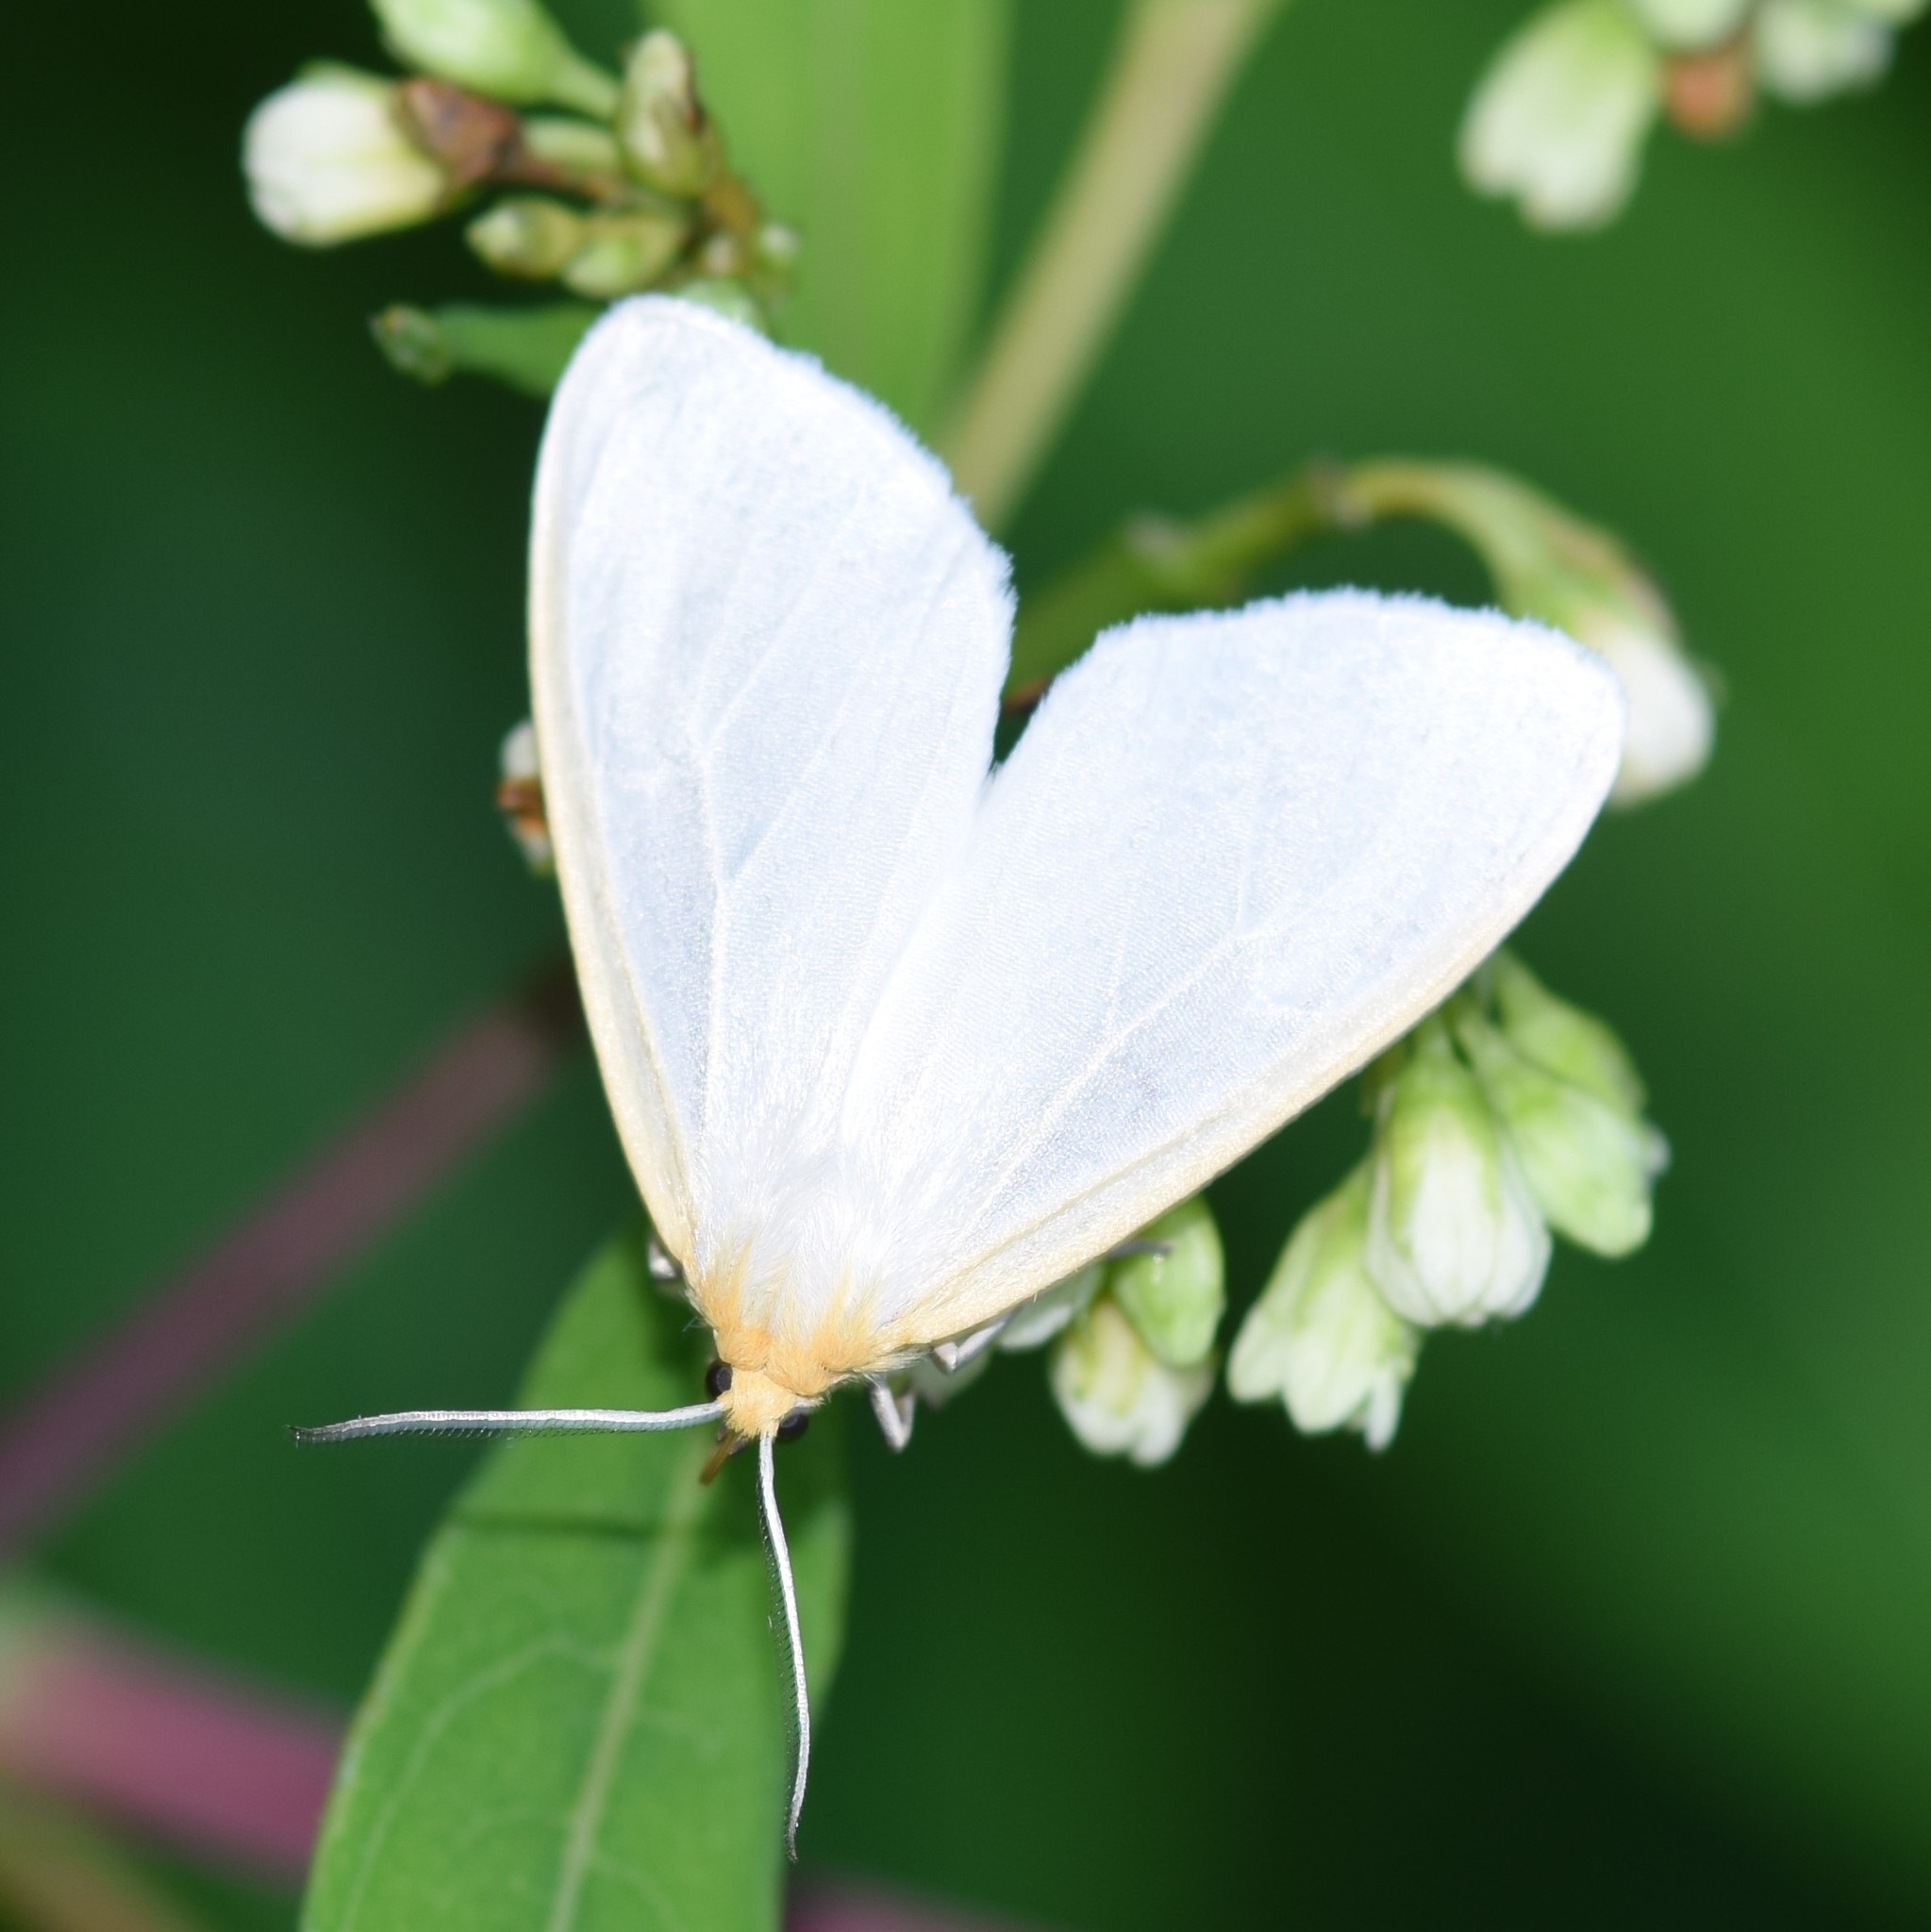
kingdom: Animalia
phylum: Arthropoda
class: Insecta
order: Lepidoptera
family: Erebidae
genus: Cycnia
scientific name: Cycnia tenera
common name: Delicate cycnia moth
